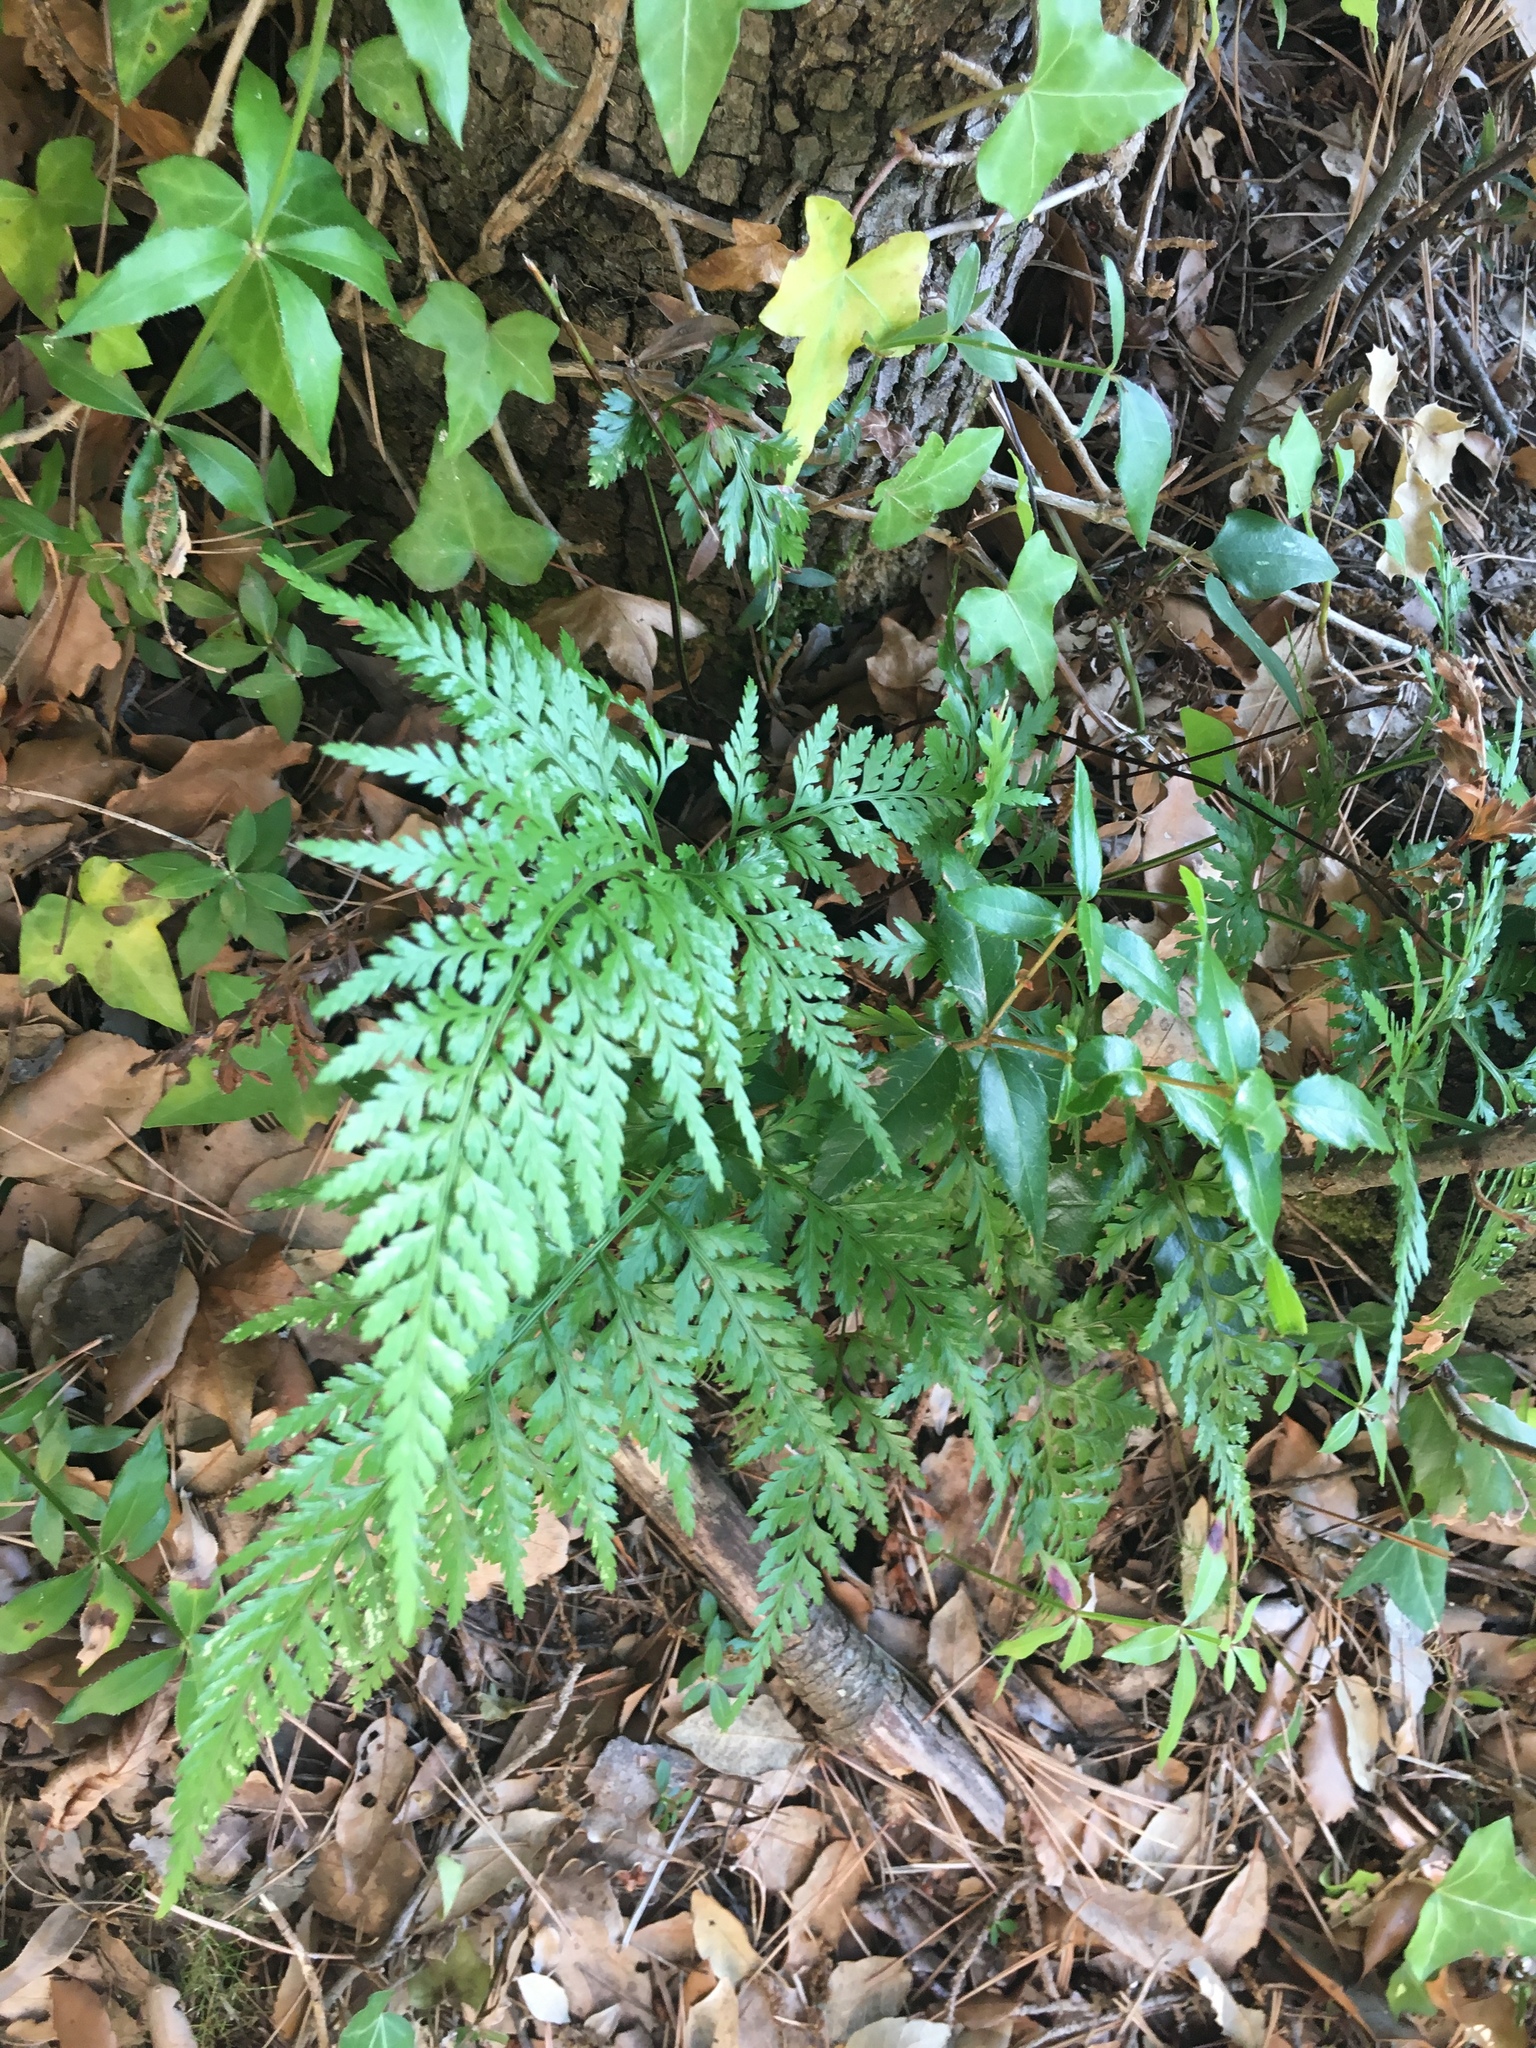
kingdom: Plantae
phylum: Tracheophyta
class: Polypodiopsida
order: Polypodiales
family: Aspleniaceae
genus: Asplenium
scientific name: Asplenium adiantum-nigrum
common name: Black spleenwort
